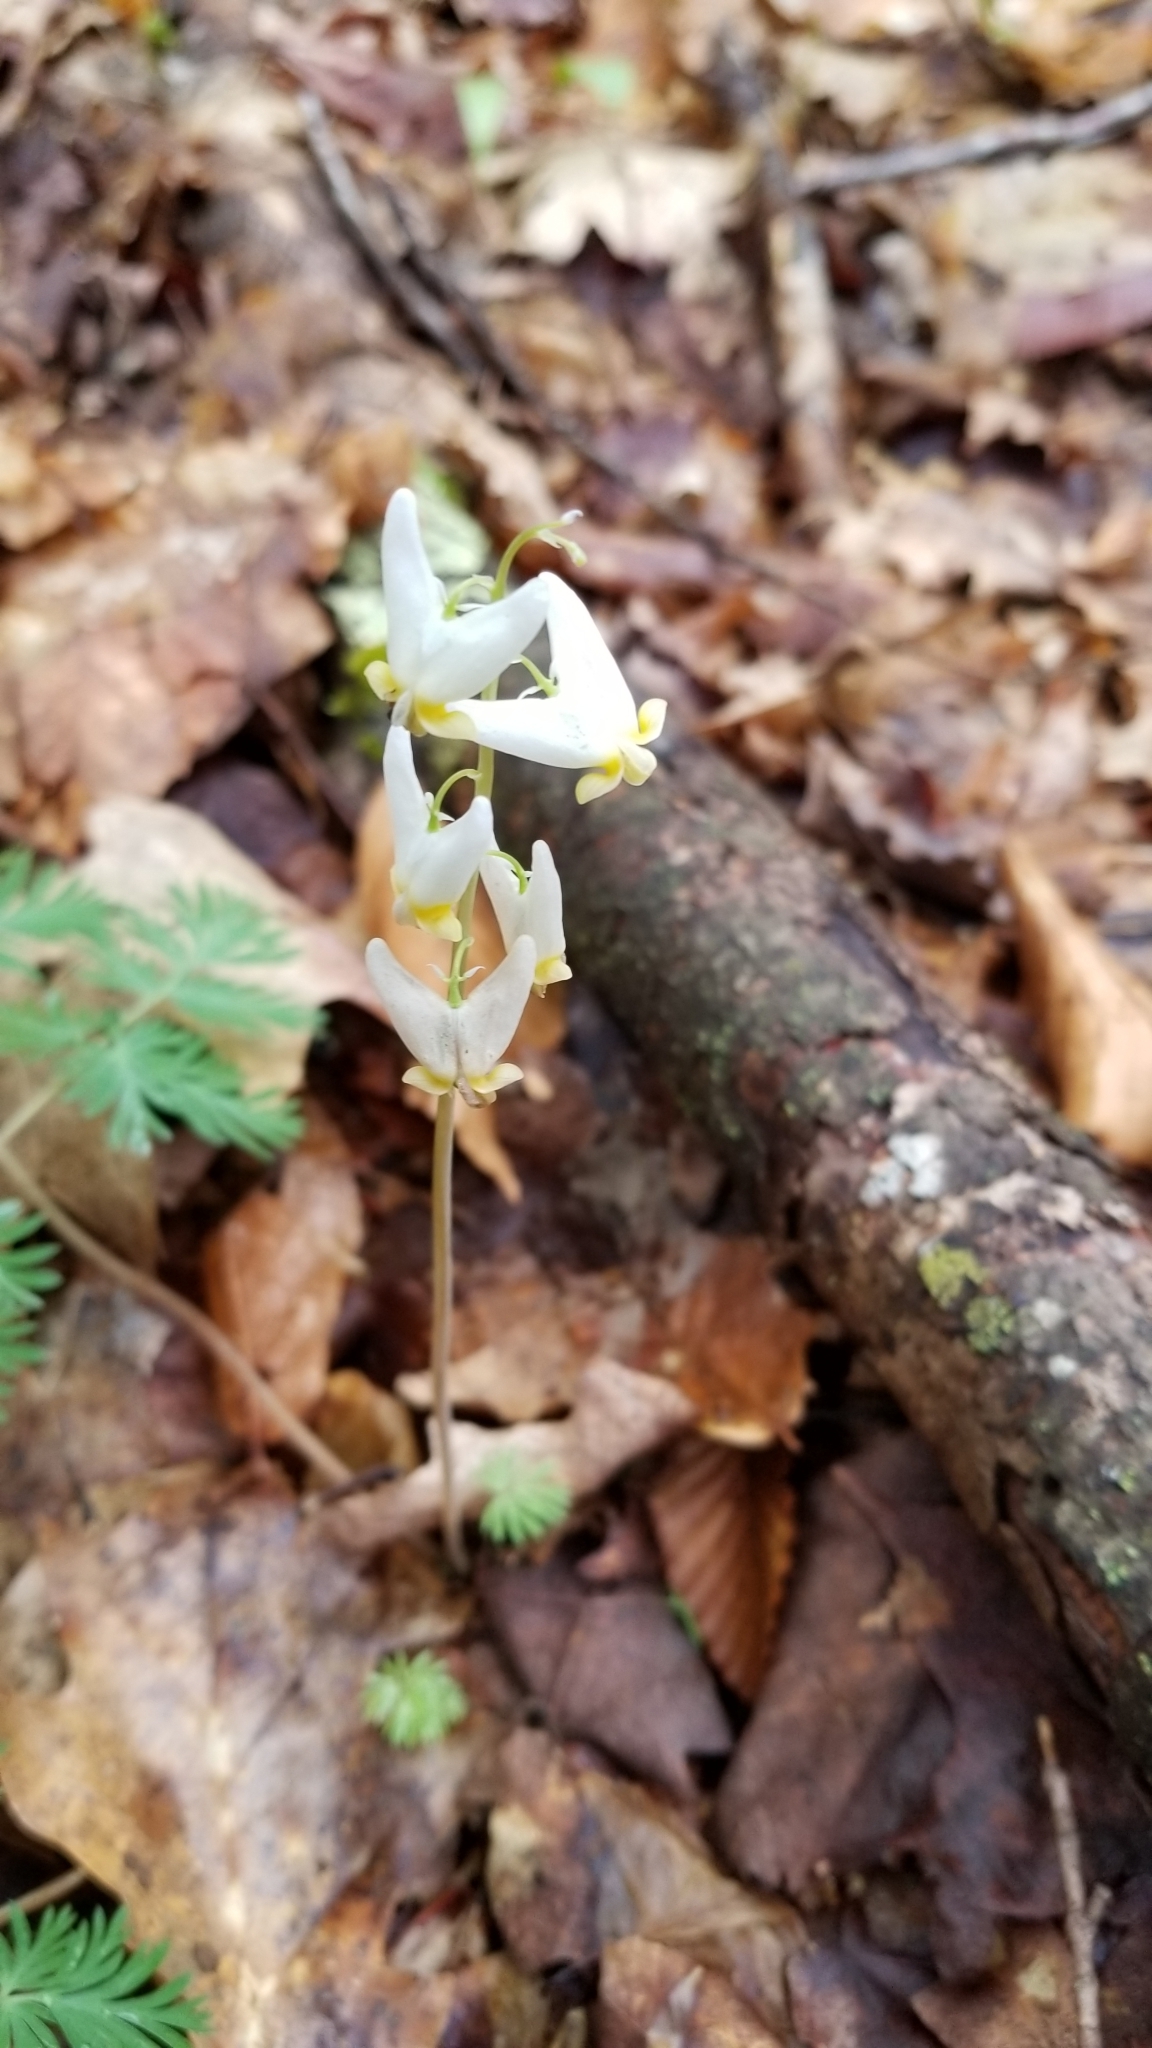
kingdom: Plantae
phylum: Tracheophyta
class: Magnoliopsida
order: Ranunculales
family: Papaveraceae
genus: Dicentra
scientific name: Dicentra cucullaria
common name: Dutchman's breeches
